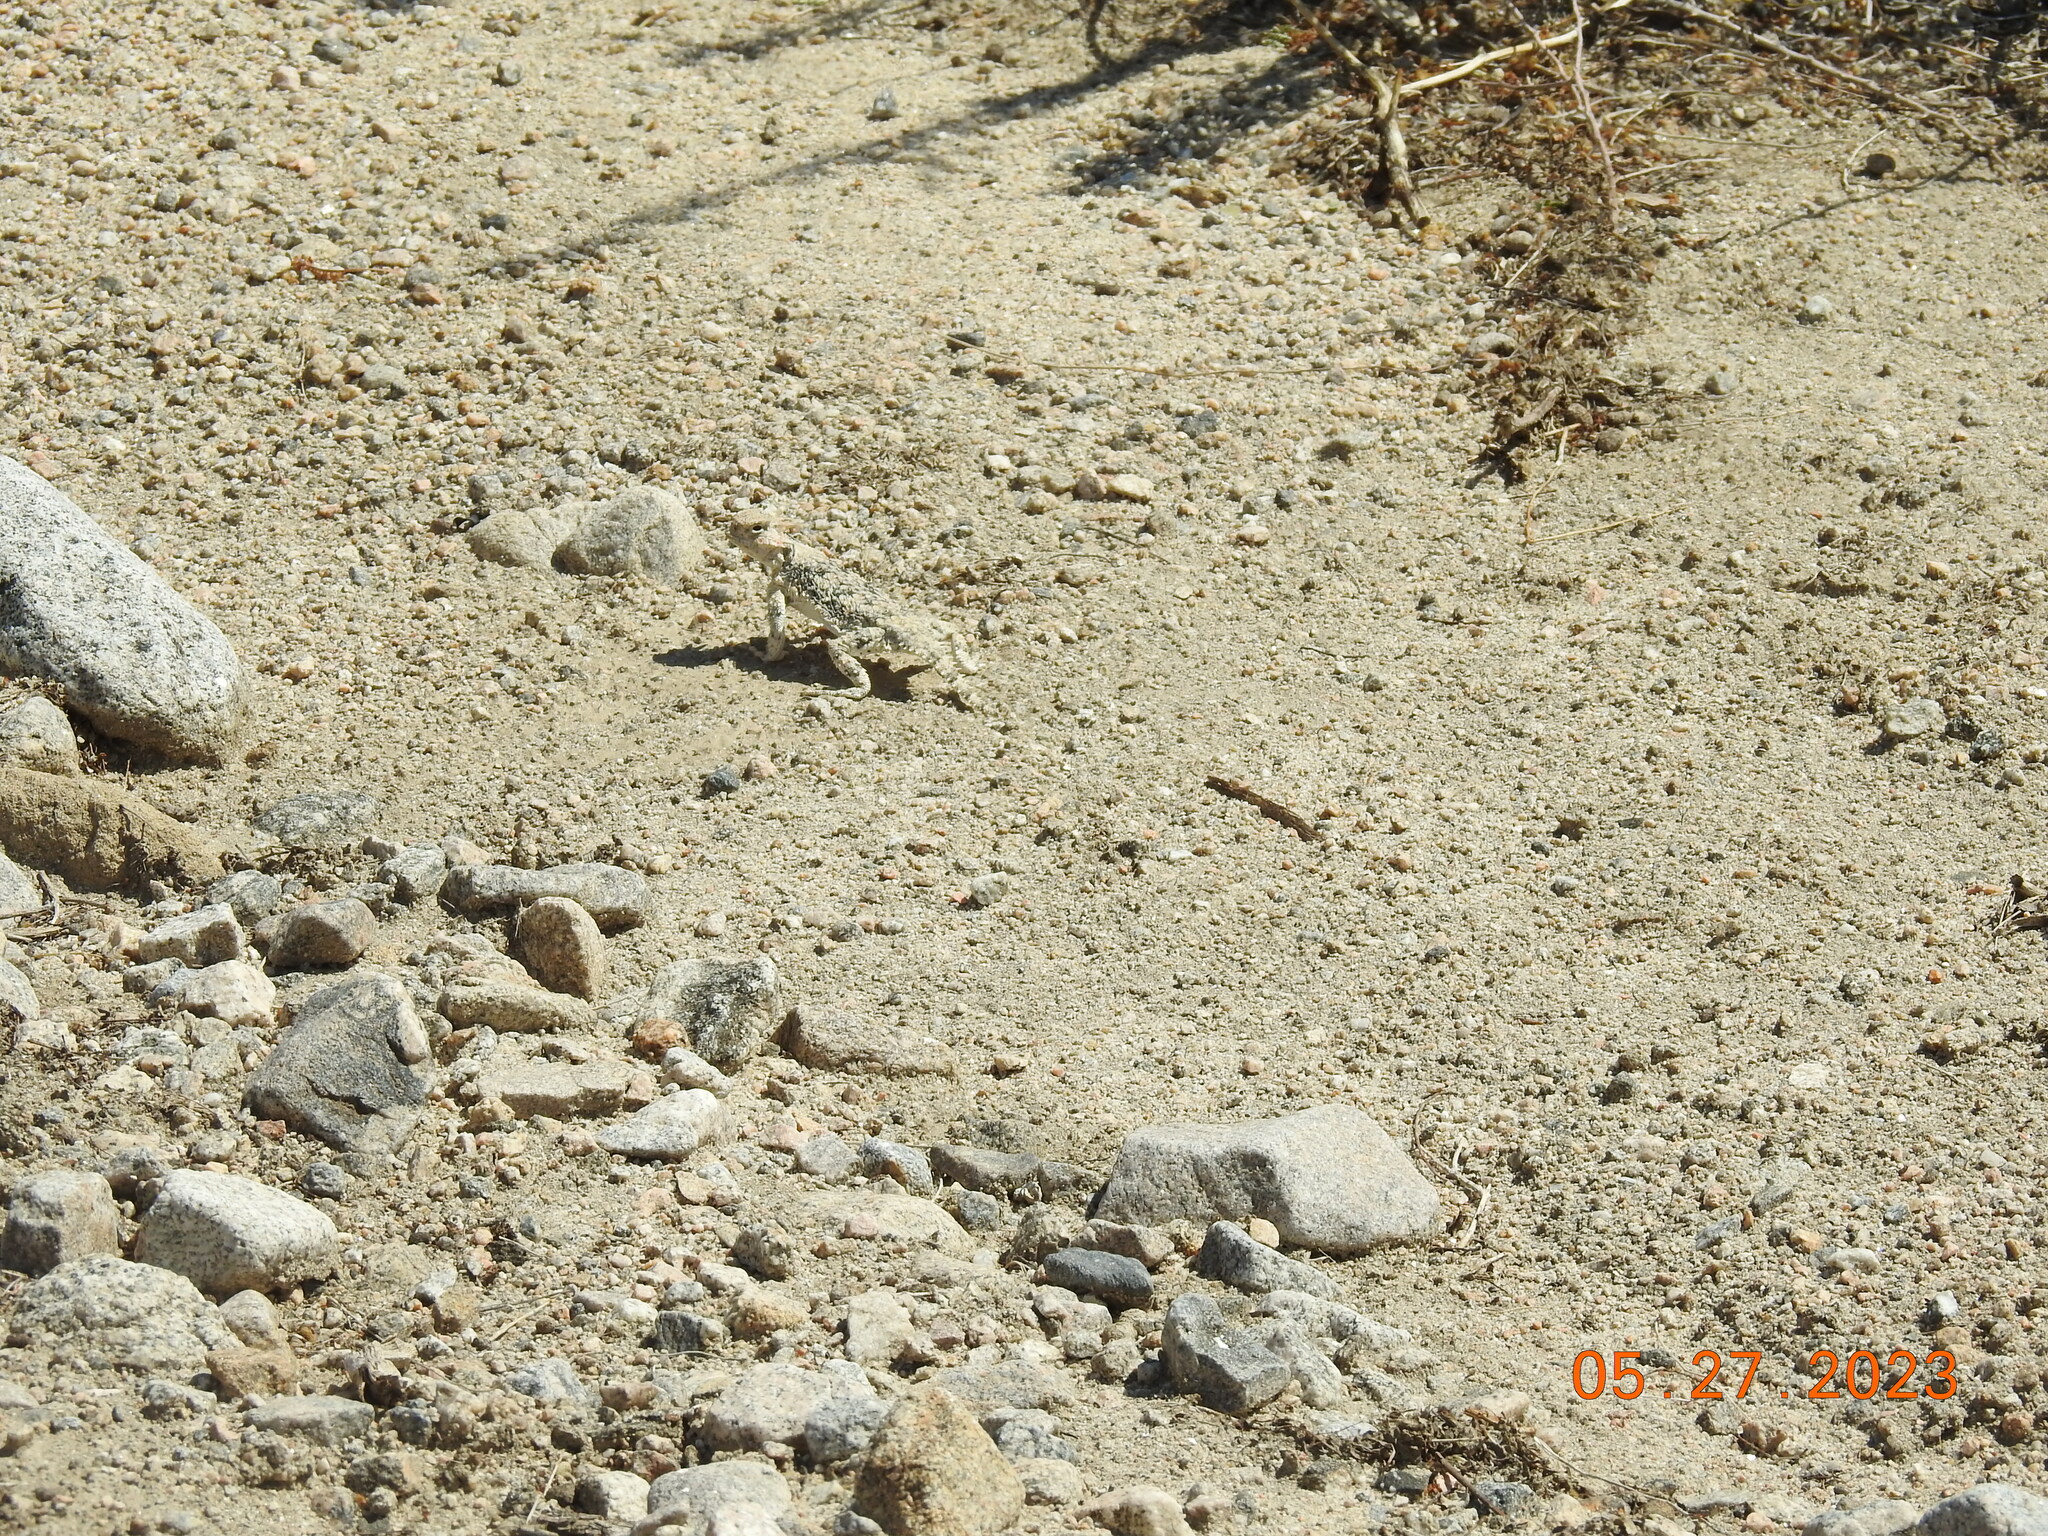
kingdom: Animalia
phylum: Chordata
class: Squamata
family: Phrynosomatidae
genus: Phrynosoma
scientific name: Phrynosoma platyrhinos
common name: Desert horned lizard
